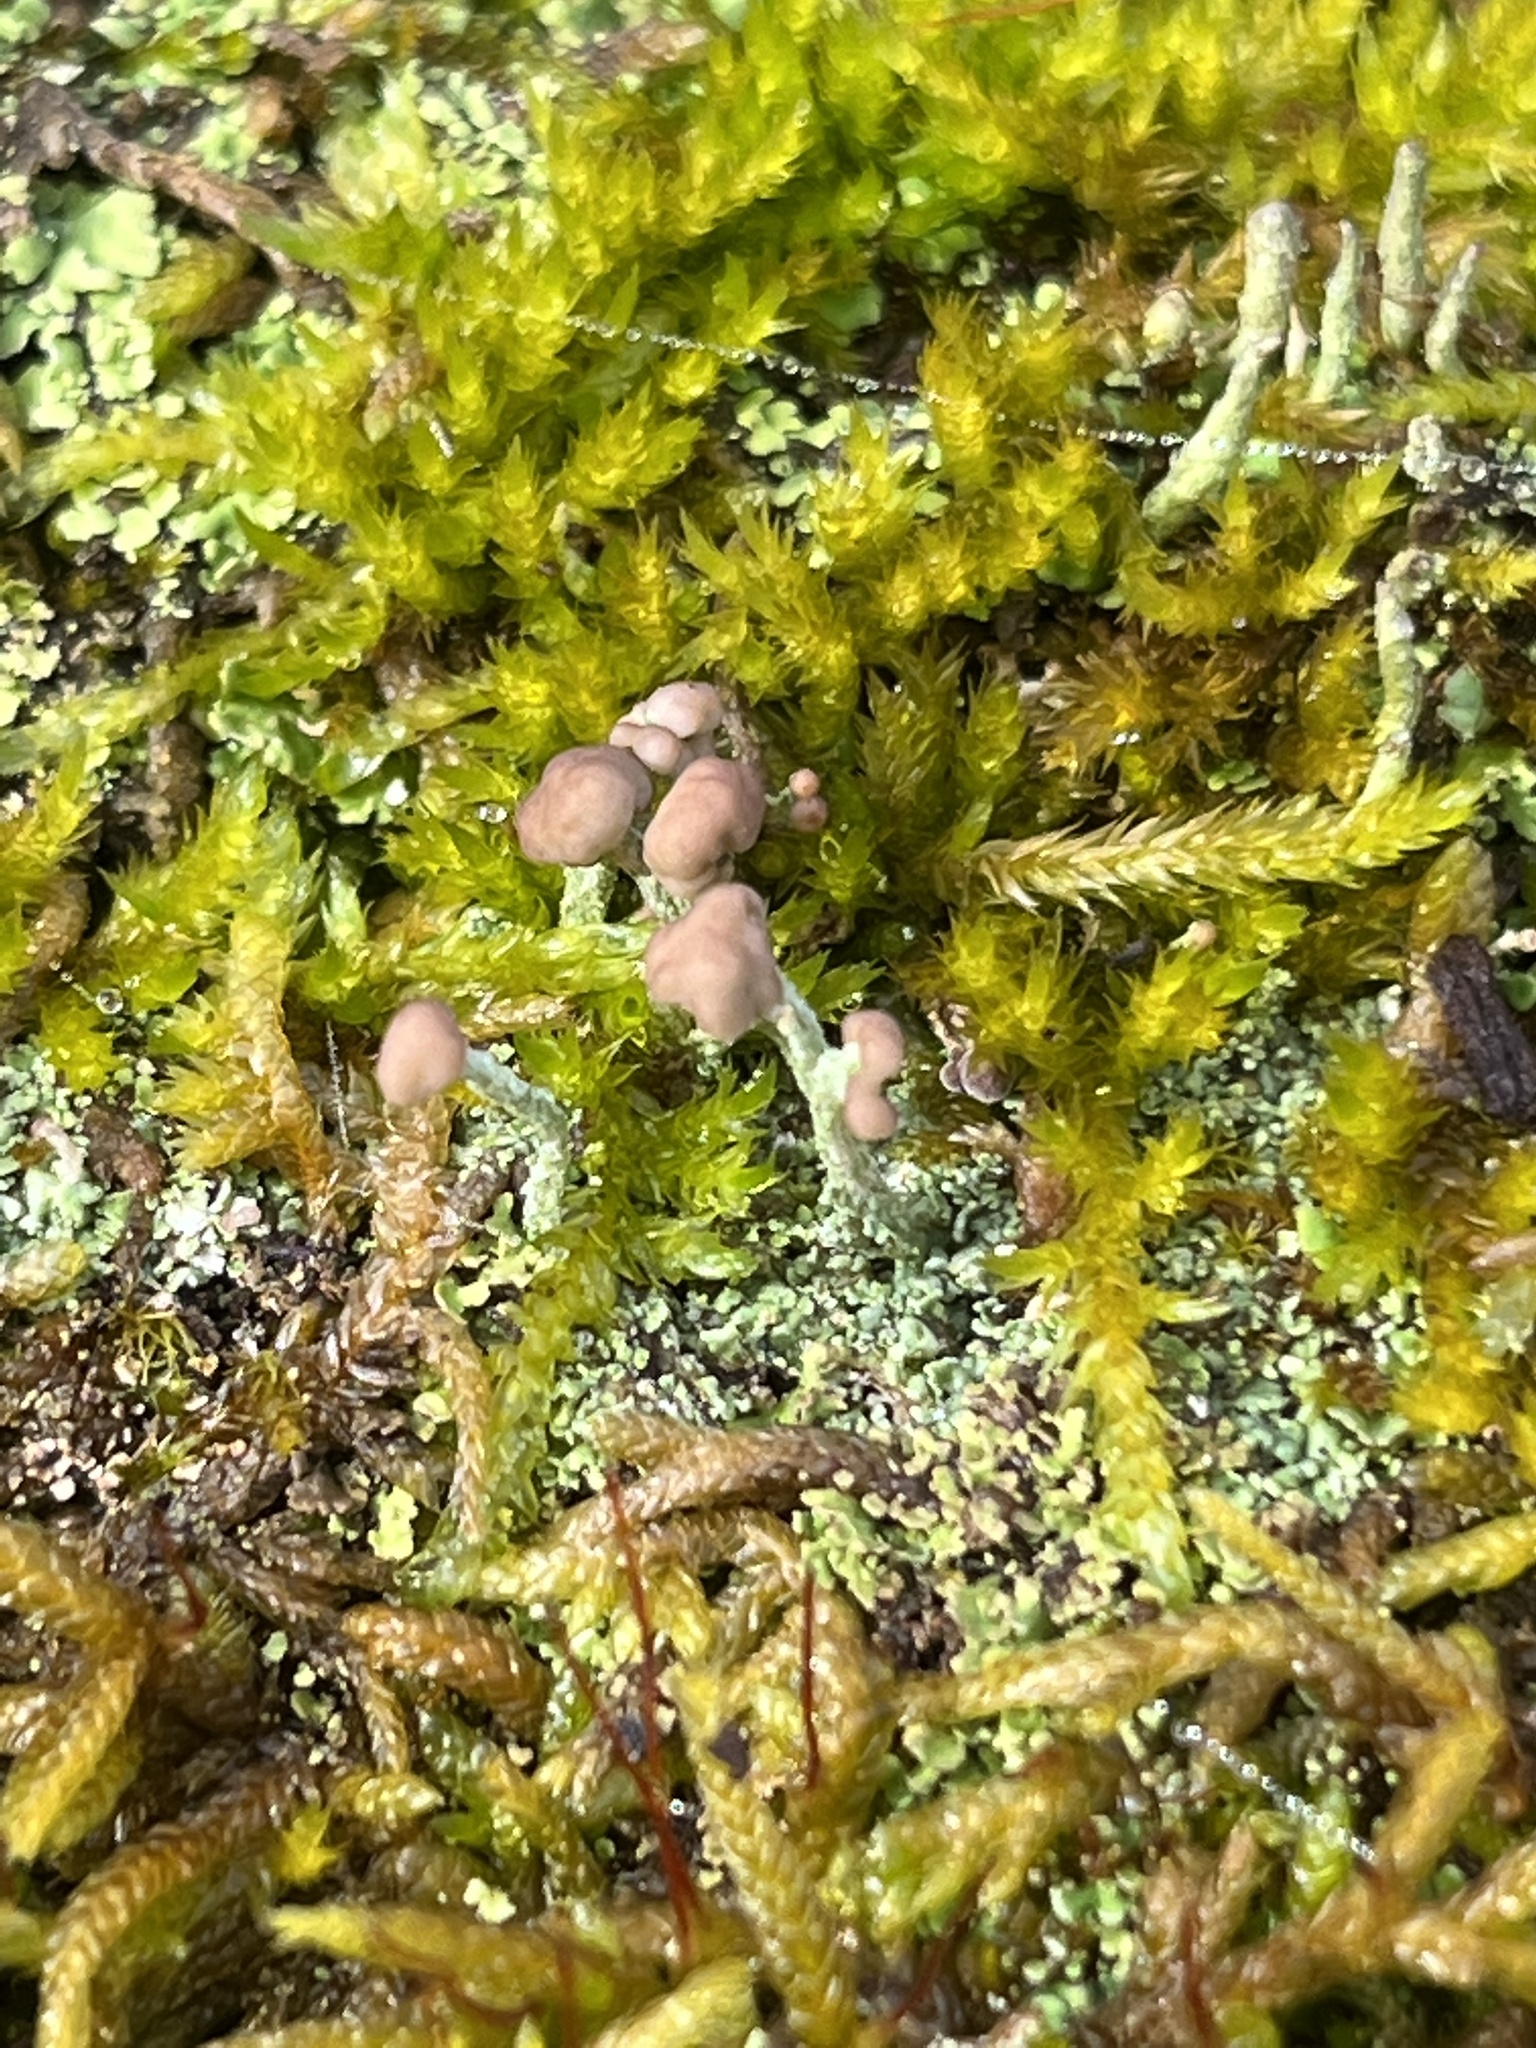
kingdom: Fungi
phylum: Ascomycota
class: Lecanoromycetes
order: Lecanorales
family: Cladoniaceae
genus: Cladonia
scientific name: Cladonia peziziformis
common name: Cup lichen
